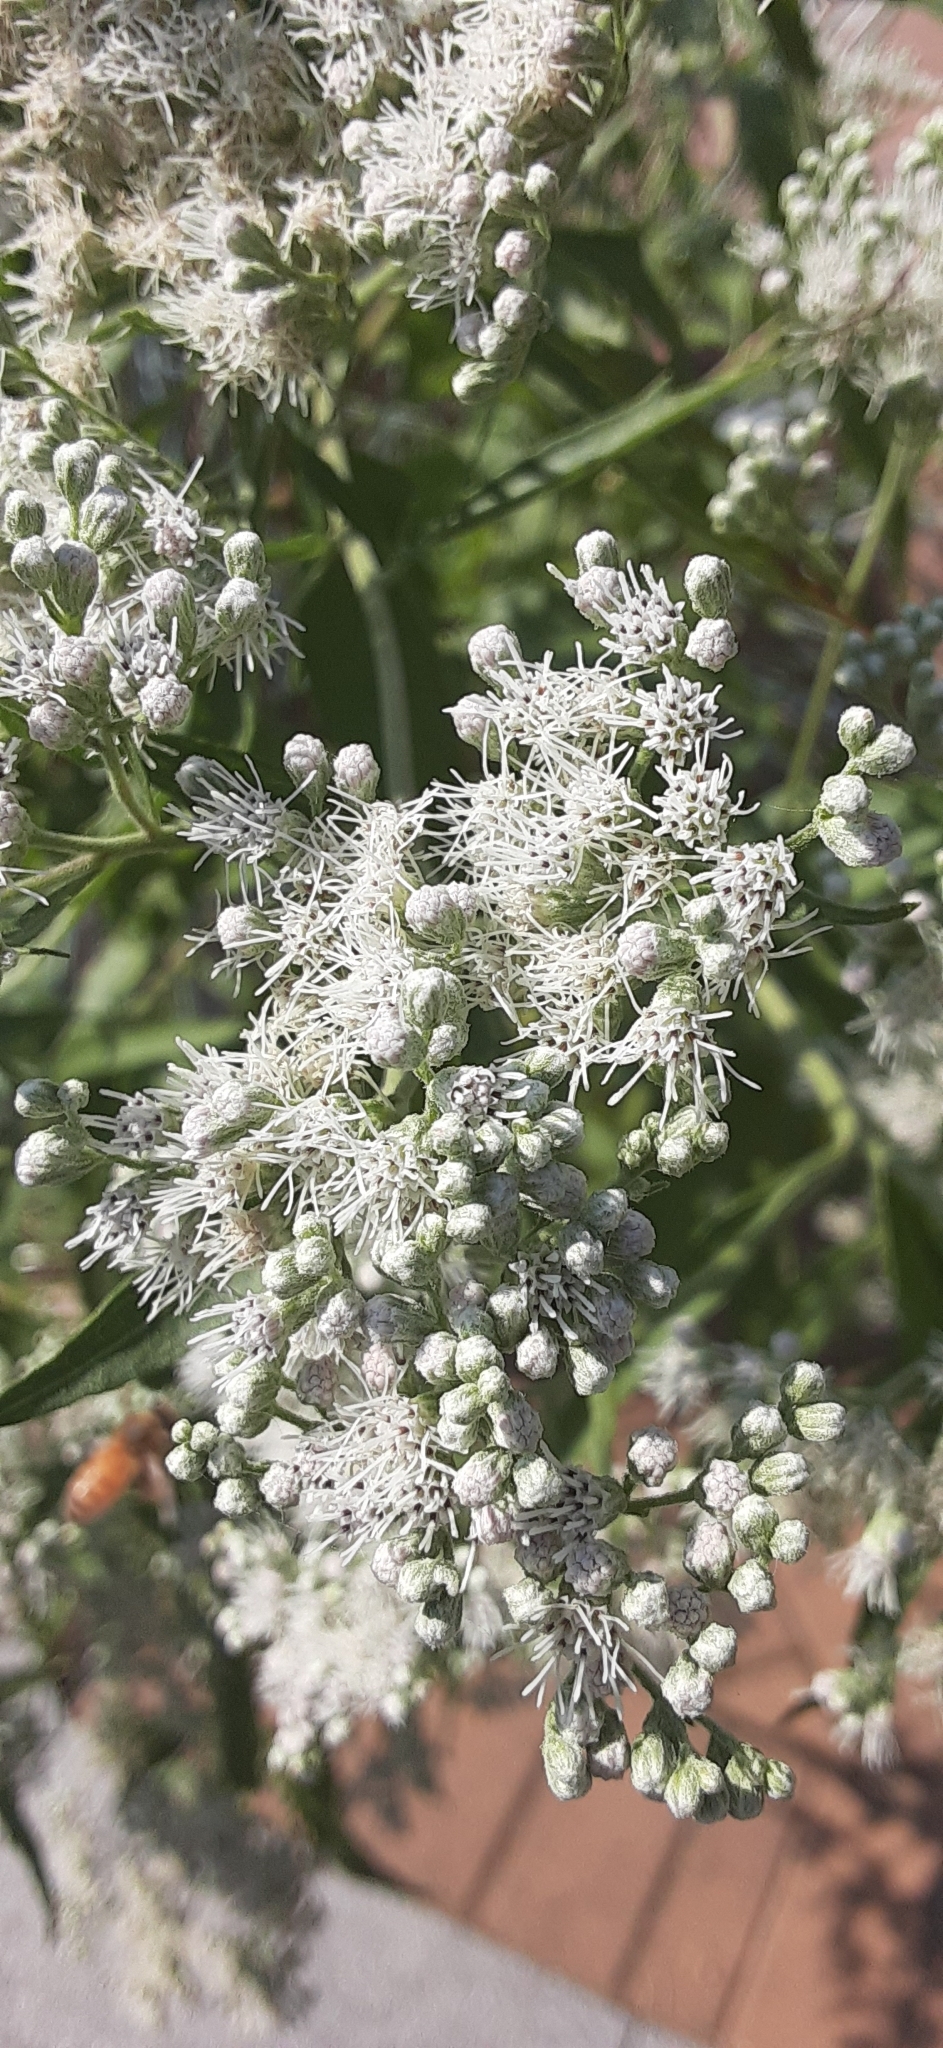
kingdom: Plantae
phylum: Tracheophyta
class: Magnoliopsida
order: Asterales
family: Asteraceae
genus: Eupatorium
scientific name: Eupatorium serotinum
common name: Late boneset
